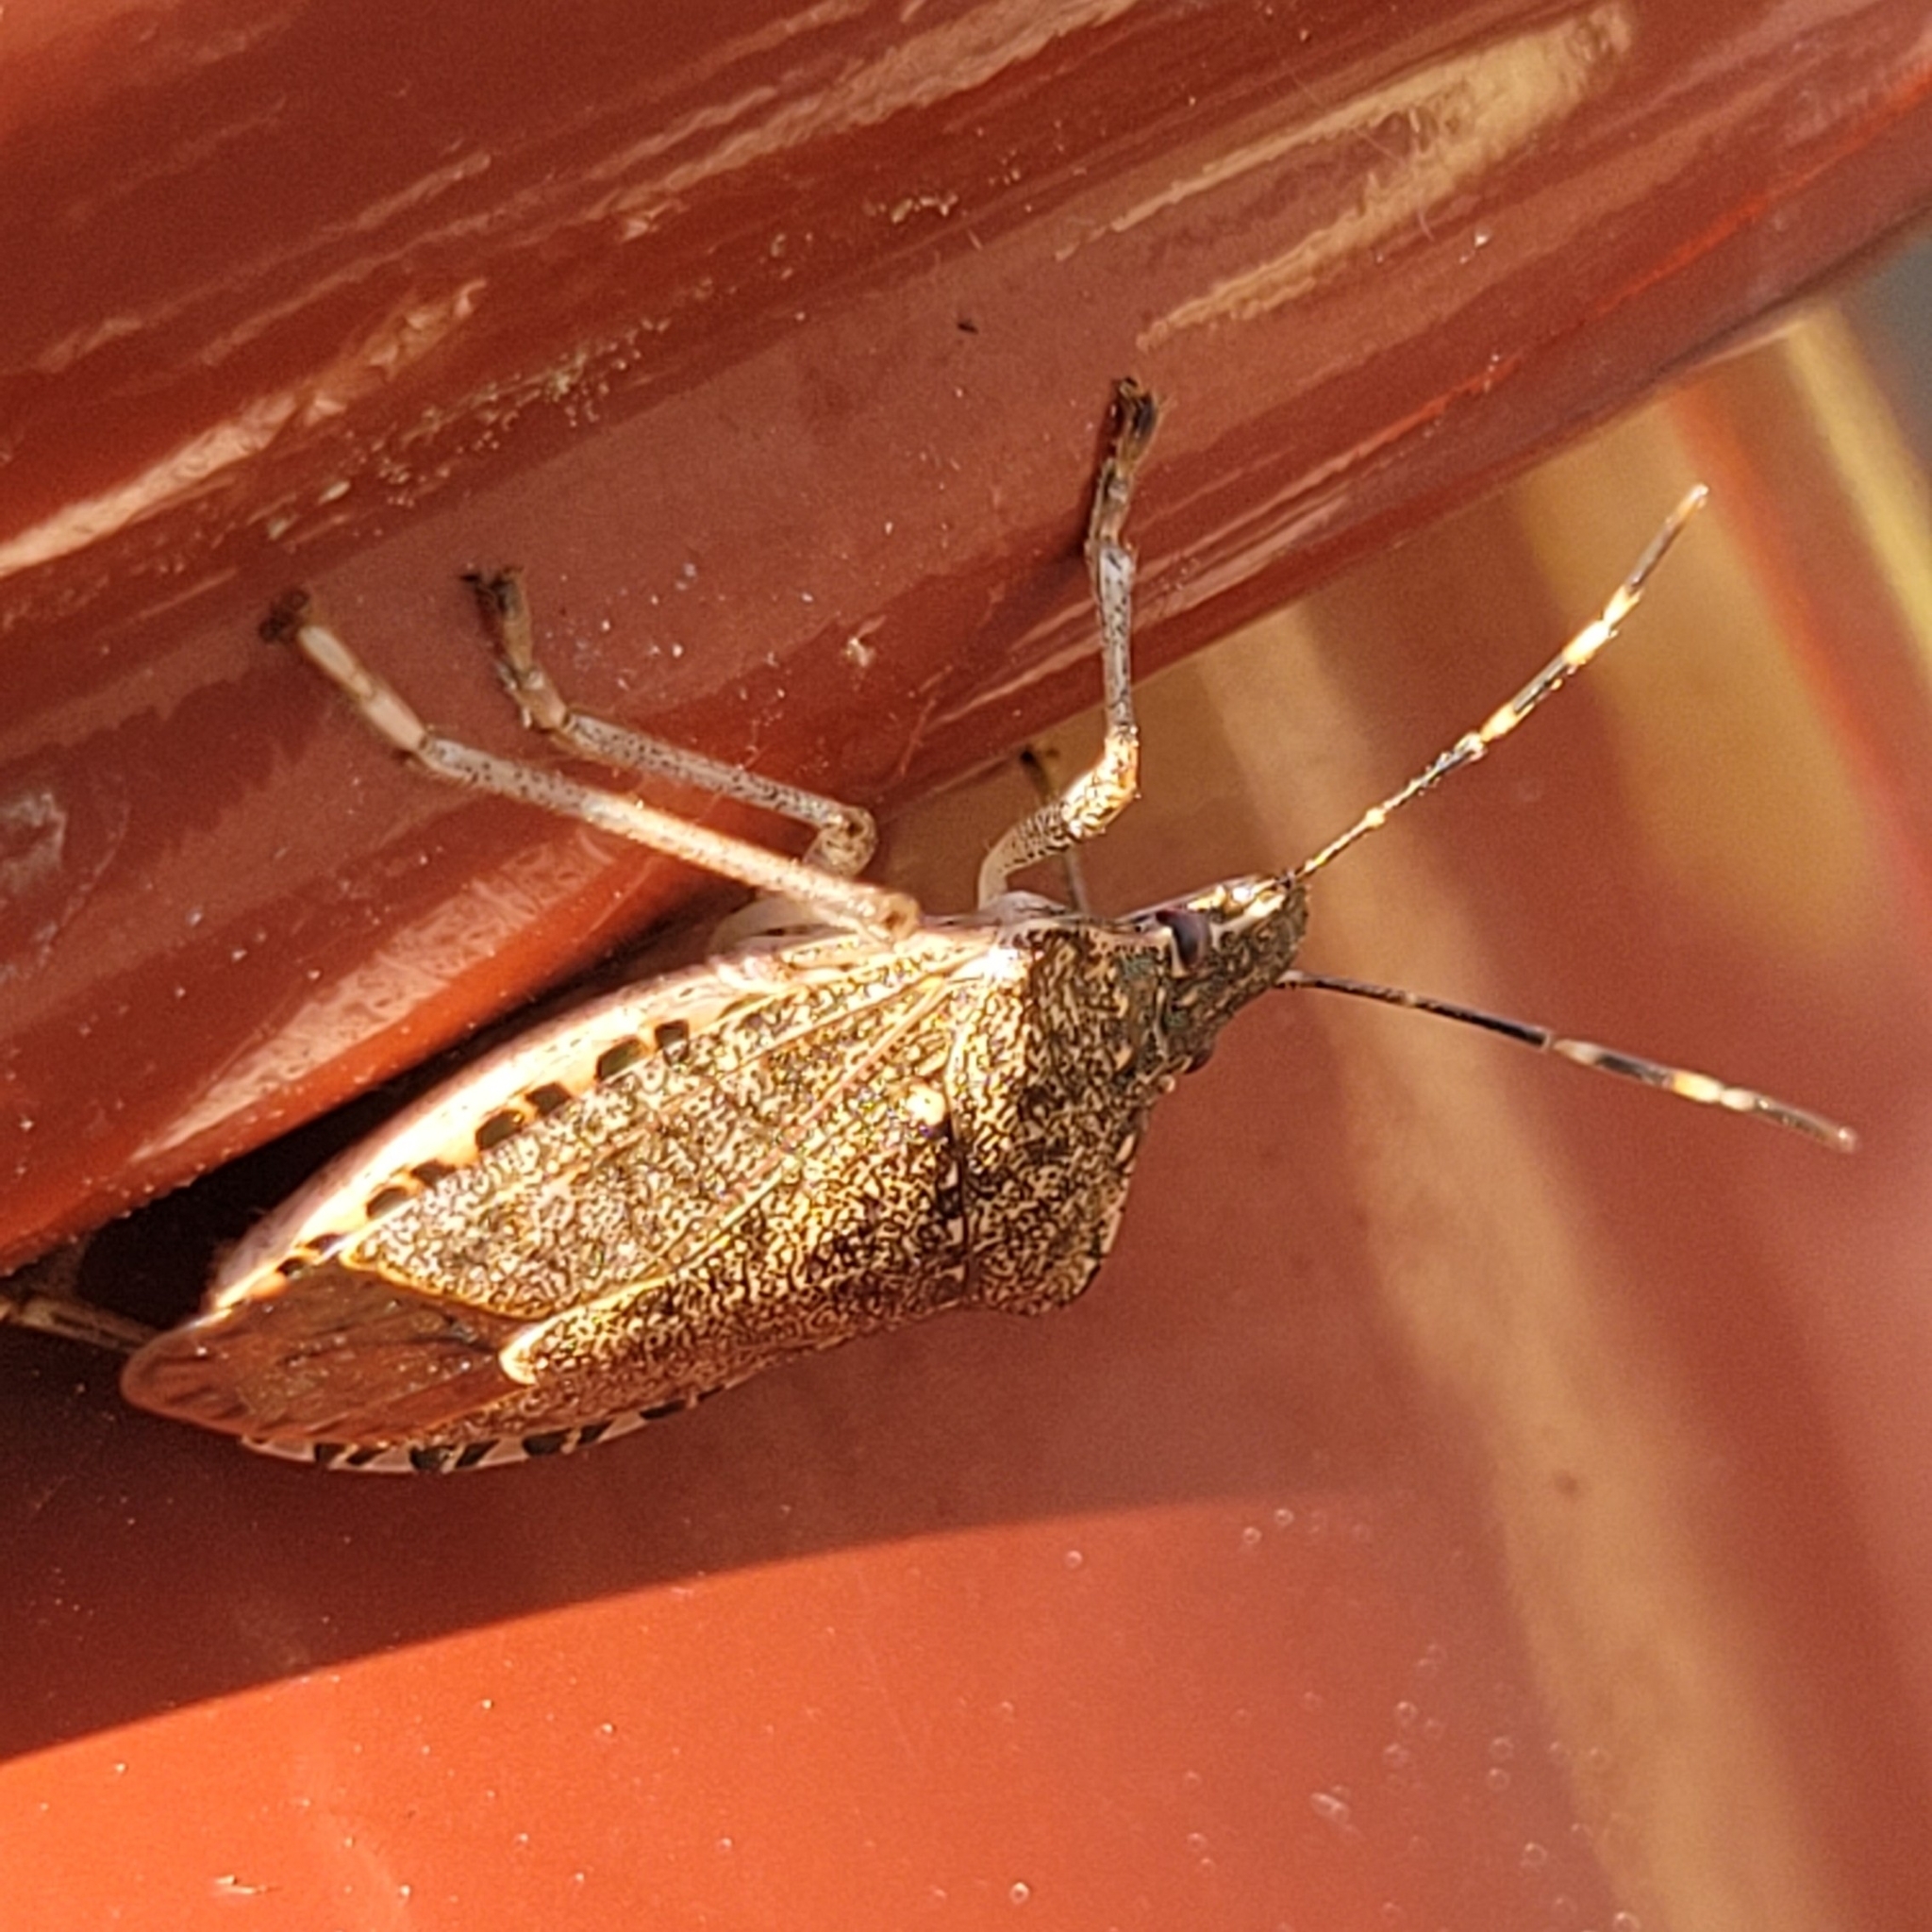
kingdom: Animalia
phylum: Arthropoda
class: Insecta
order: Hemiptera
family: Pentatomidae
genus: Halyomorpha
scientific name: Halyomorpha halys
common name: Brown marmorated stink bug
